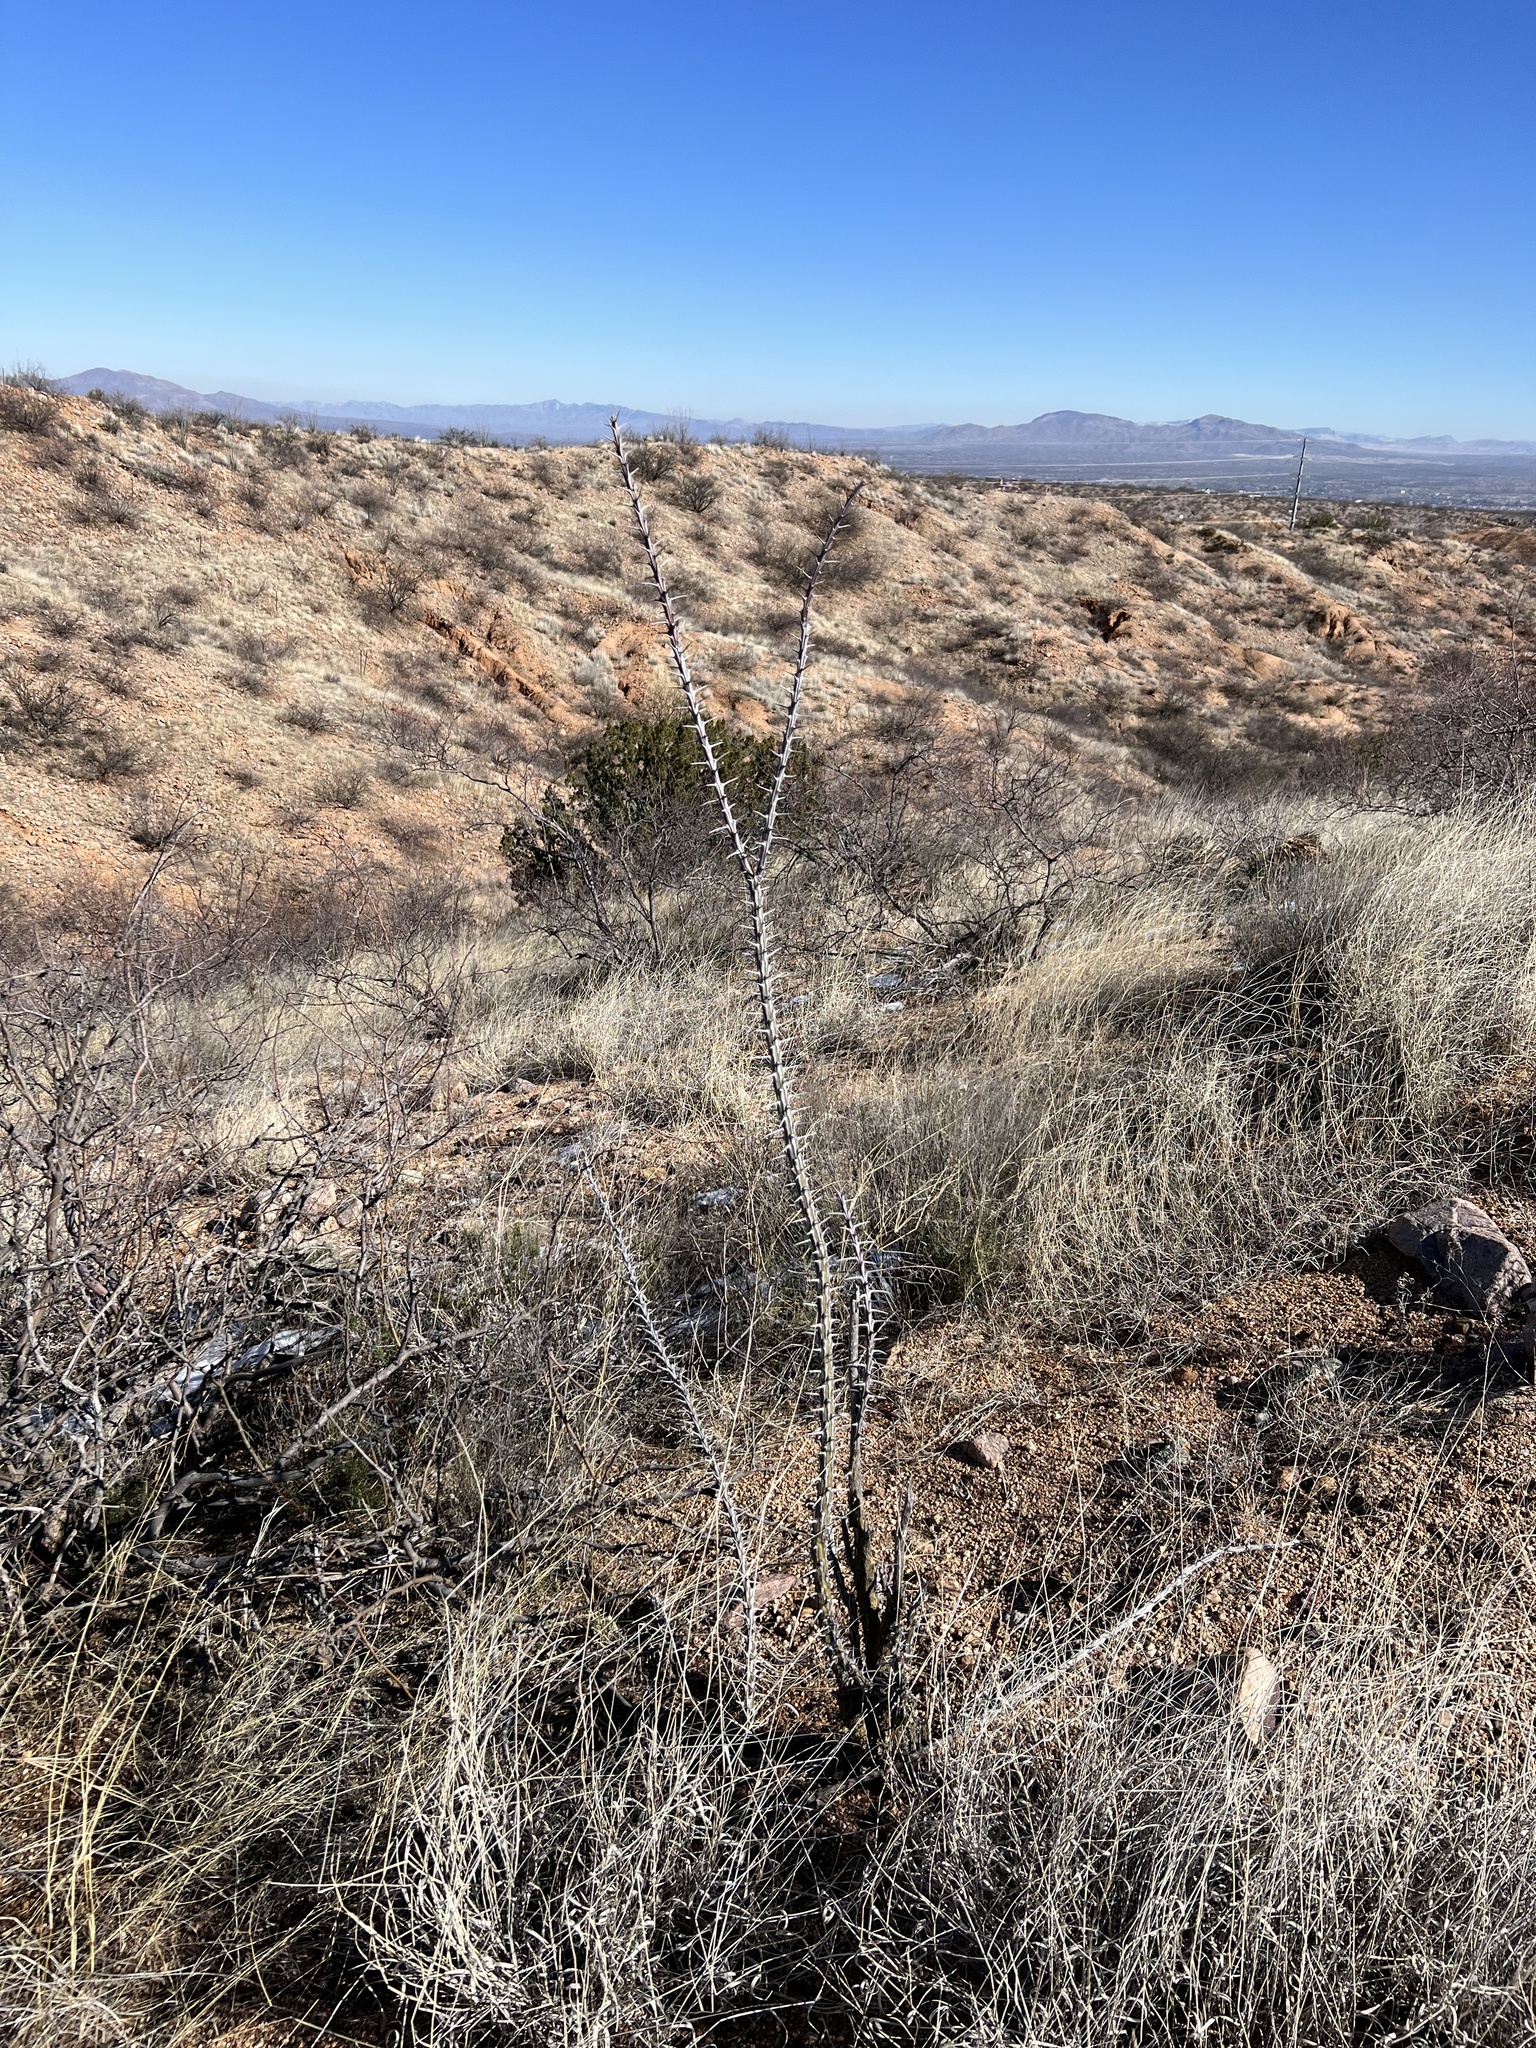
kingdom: Plantae
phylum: Tracheophyta
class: Magnoliopsida
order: Ericales
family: Fouquieriaceae
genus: Fouquieria
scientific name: Fouquieria splendens
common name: Vine-cactus
